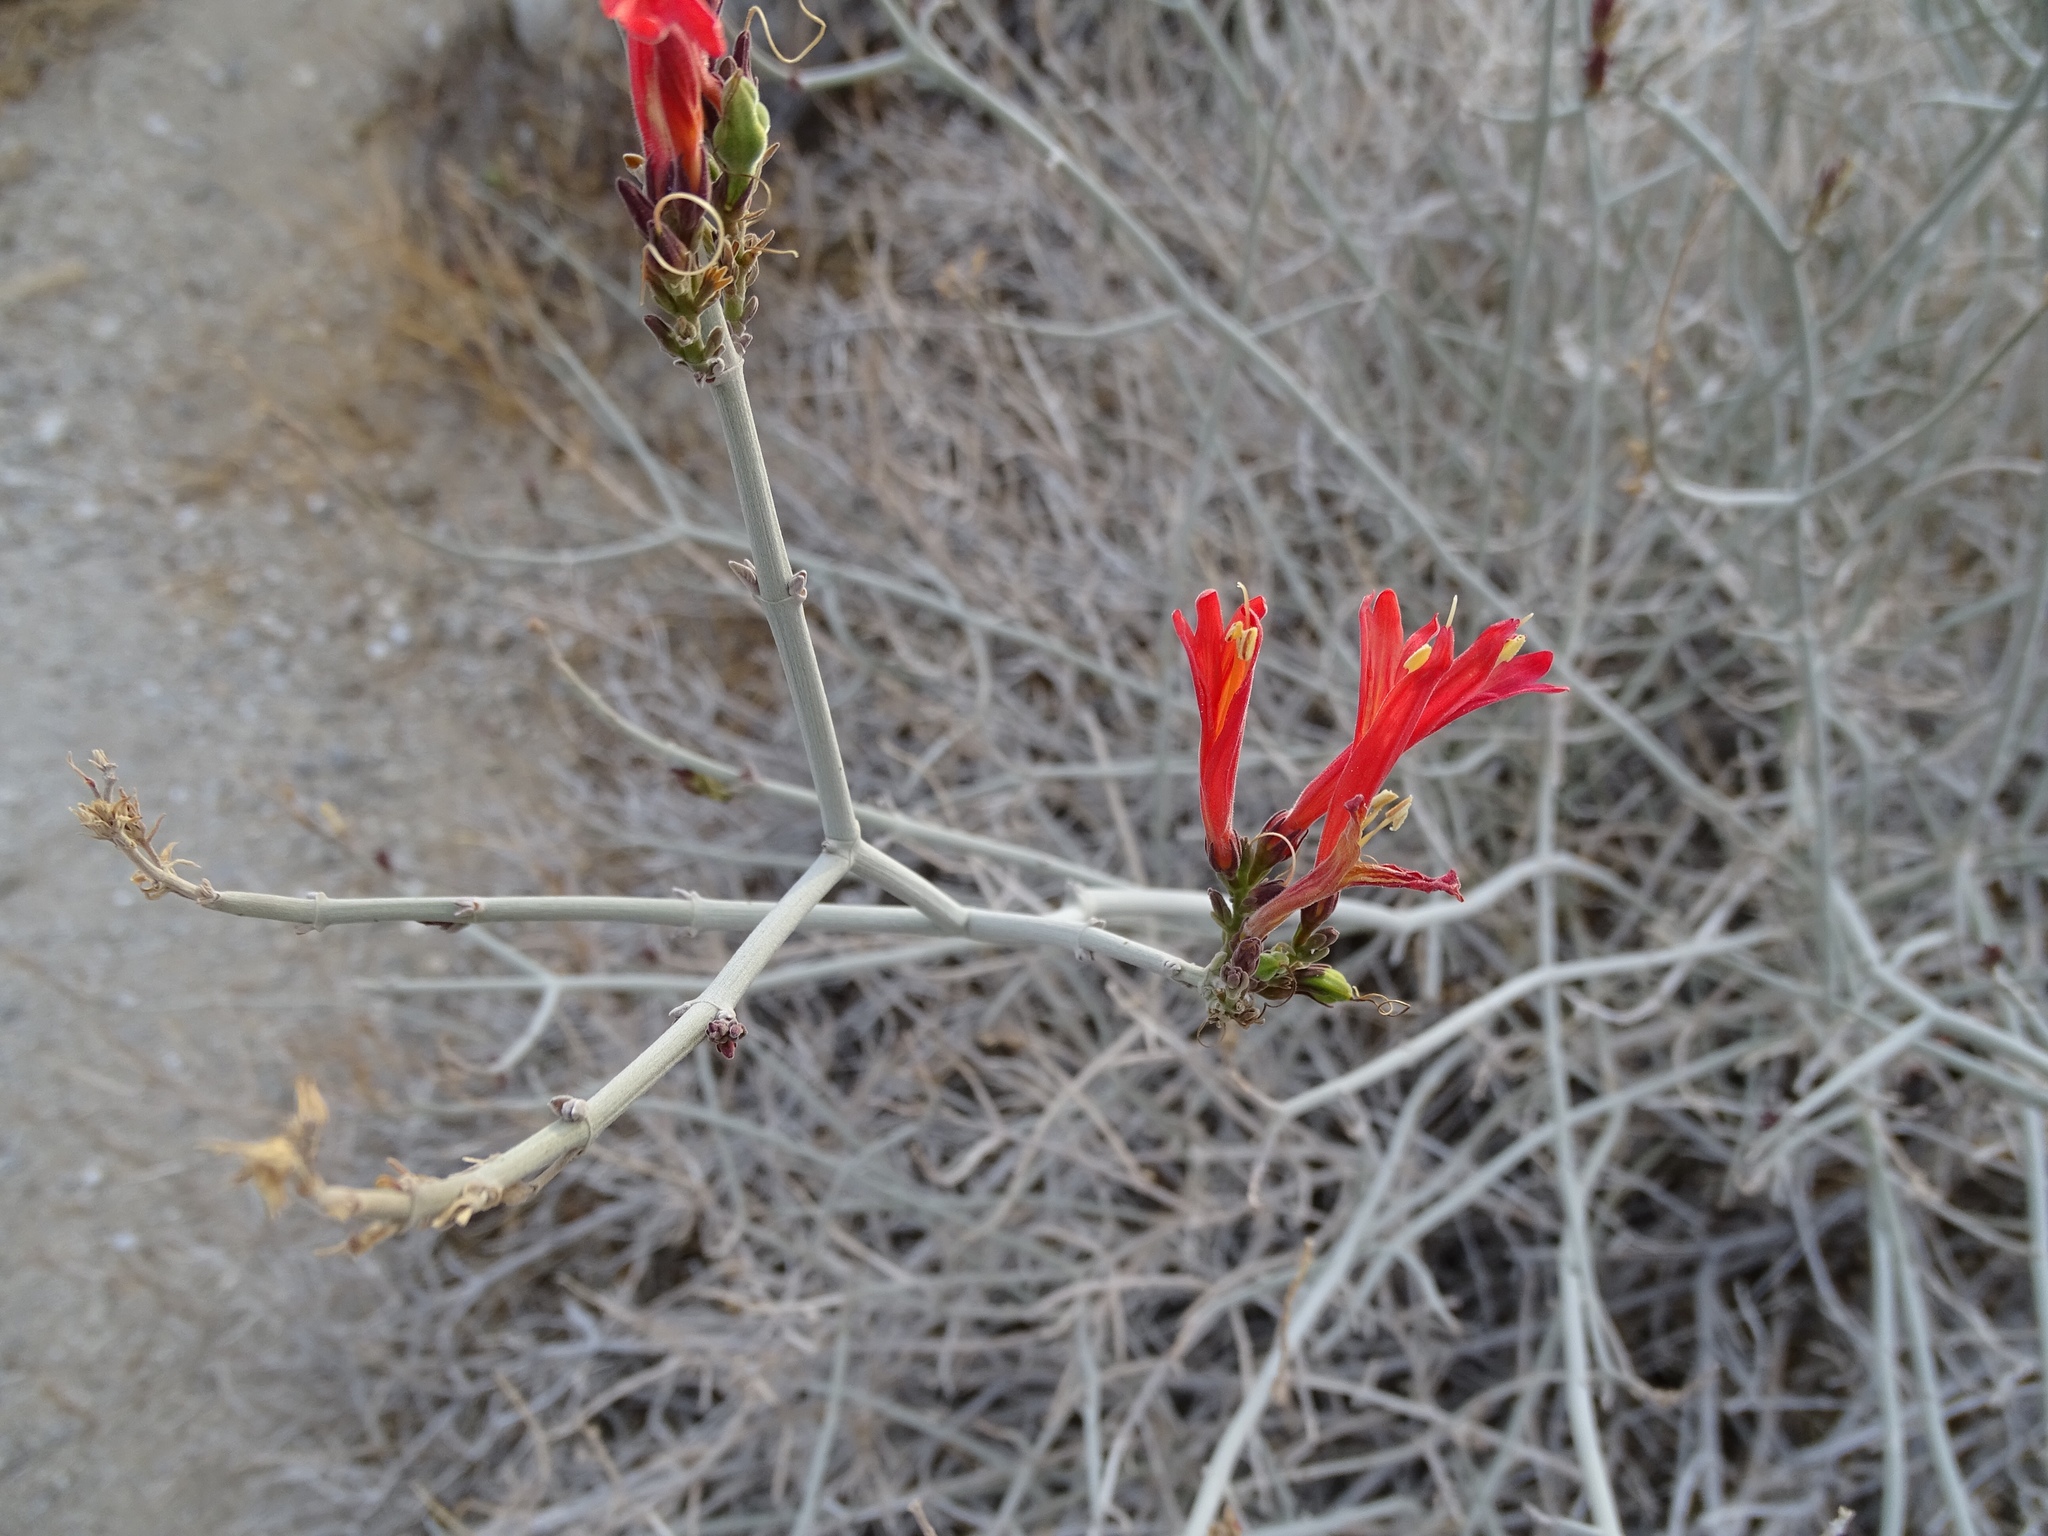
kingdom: Plantae
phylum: Tracheophyta
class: Magnoliopsida
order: Lamiales
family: Acanthaceae
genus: Justicia
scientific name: Justicia californica
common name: Chuparosa-honeysuckle
